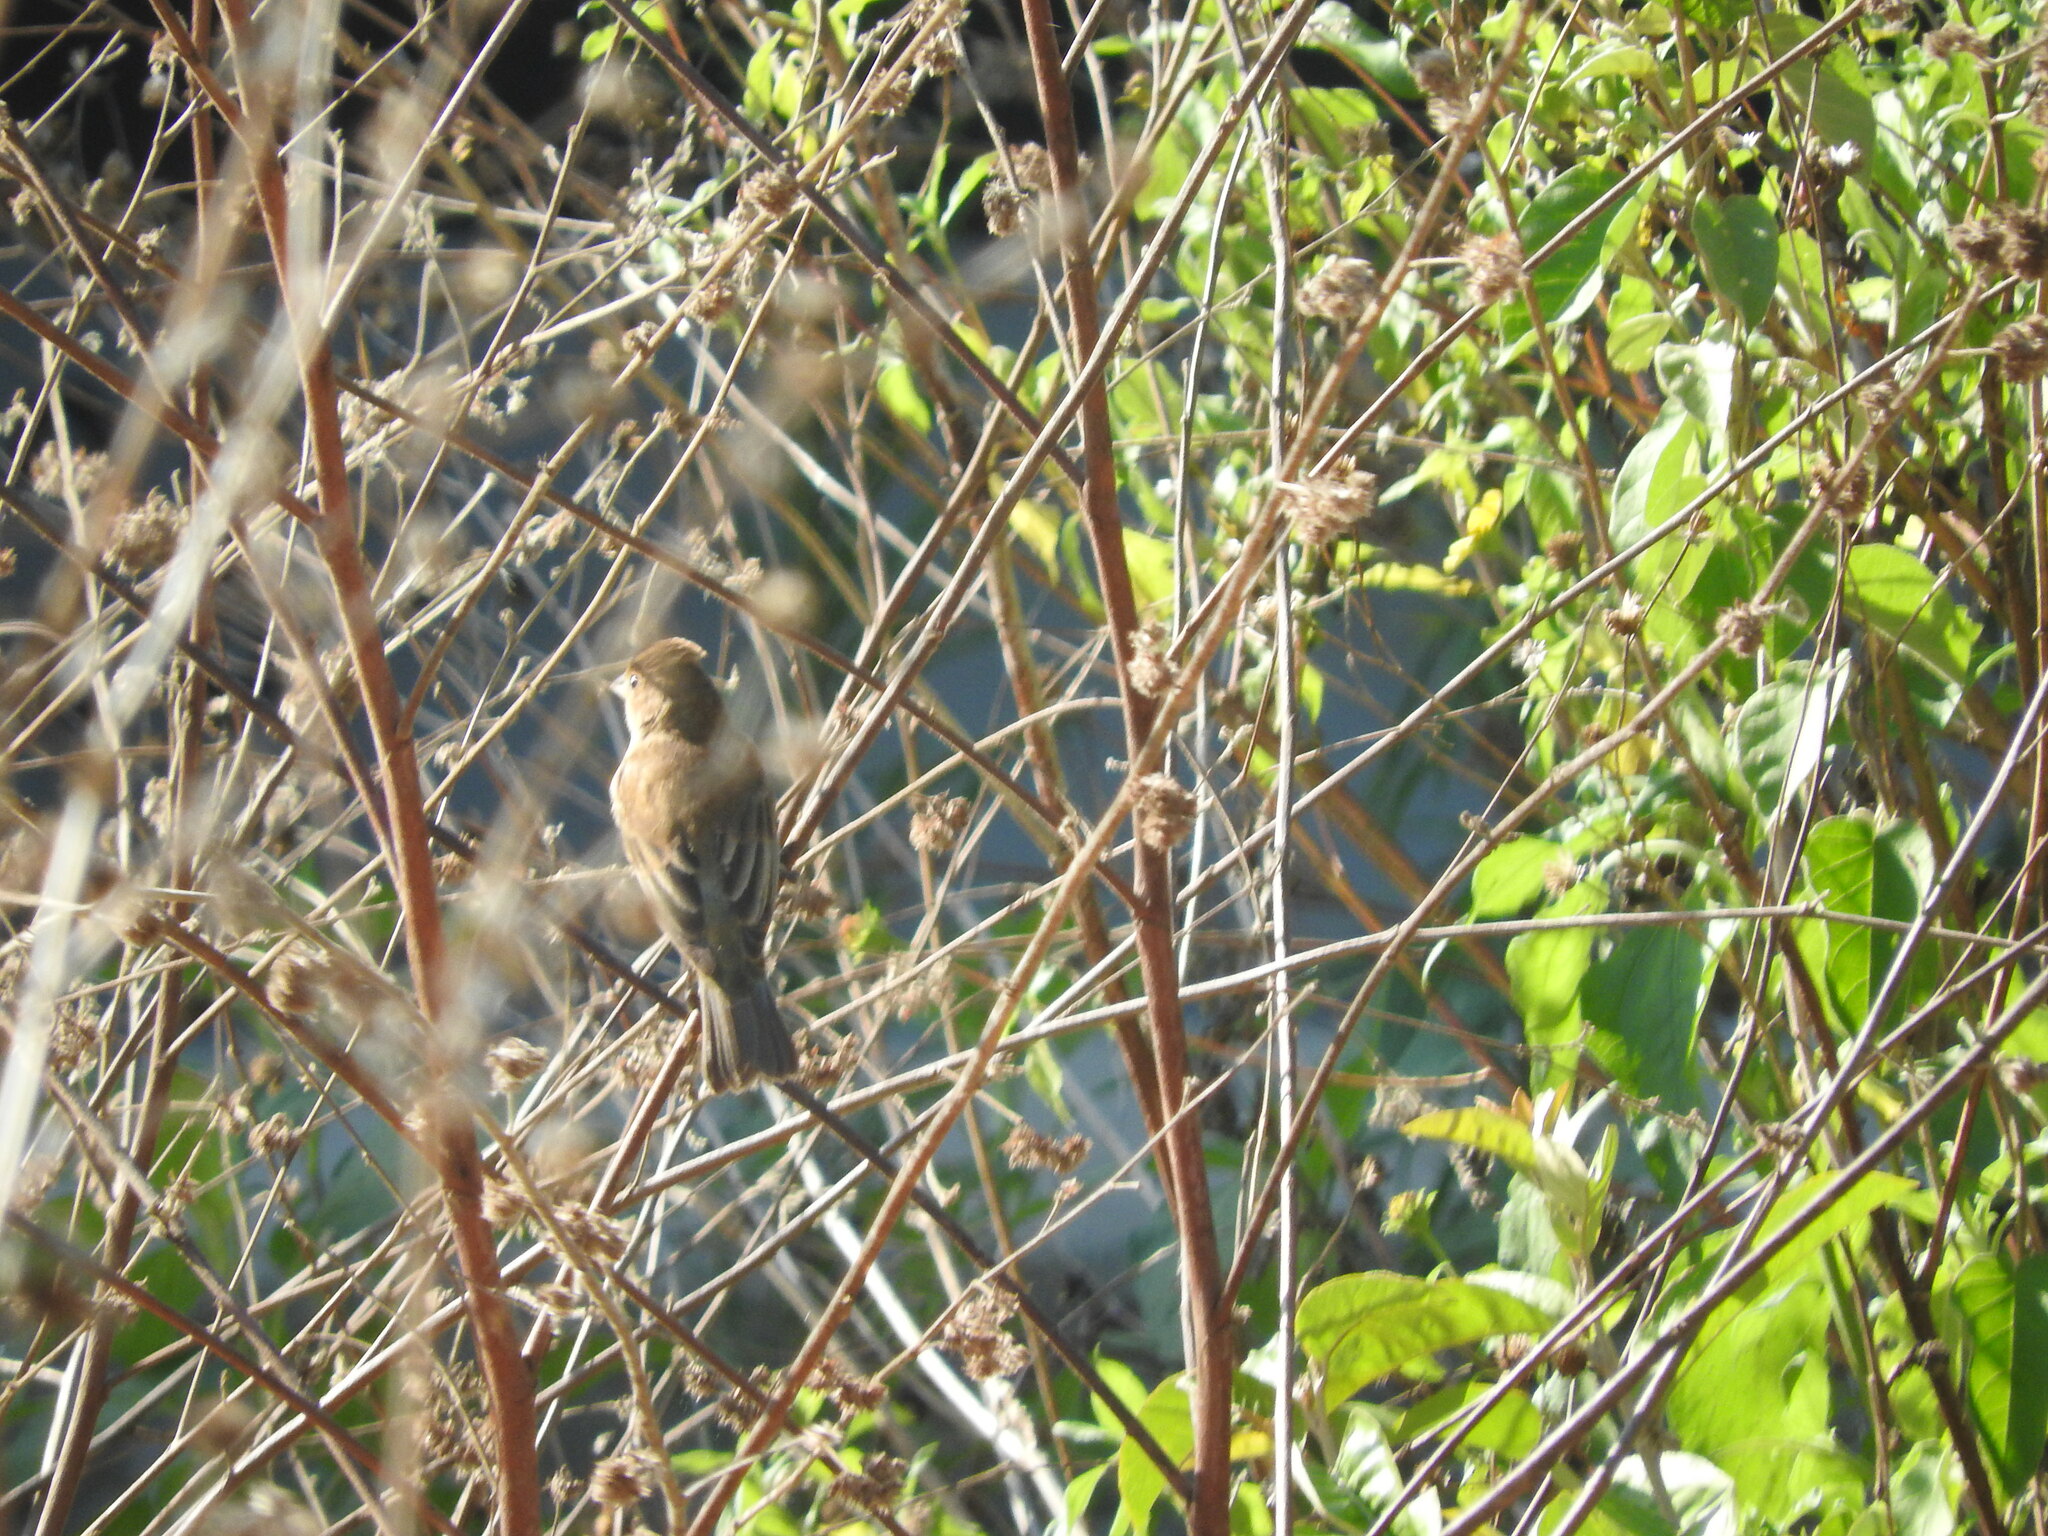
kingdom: Animalia
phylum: Chordata
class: Aves
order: Passeriformes
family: Thraupidae
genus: Volatinia
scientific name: Volatinia jacarina
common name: Blue-black grassquit
